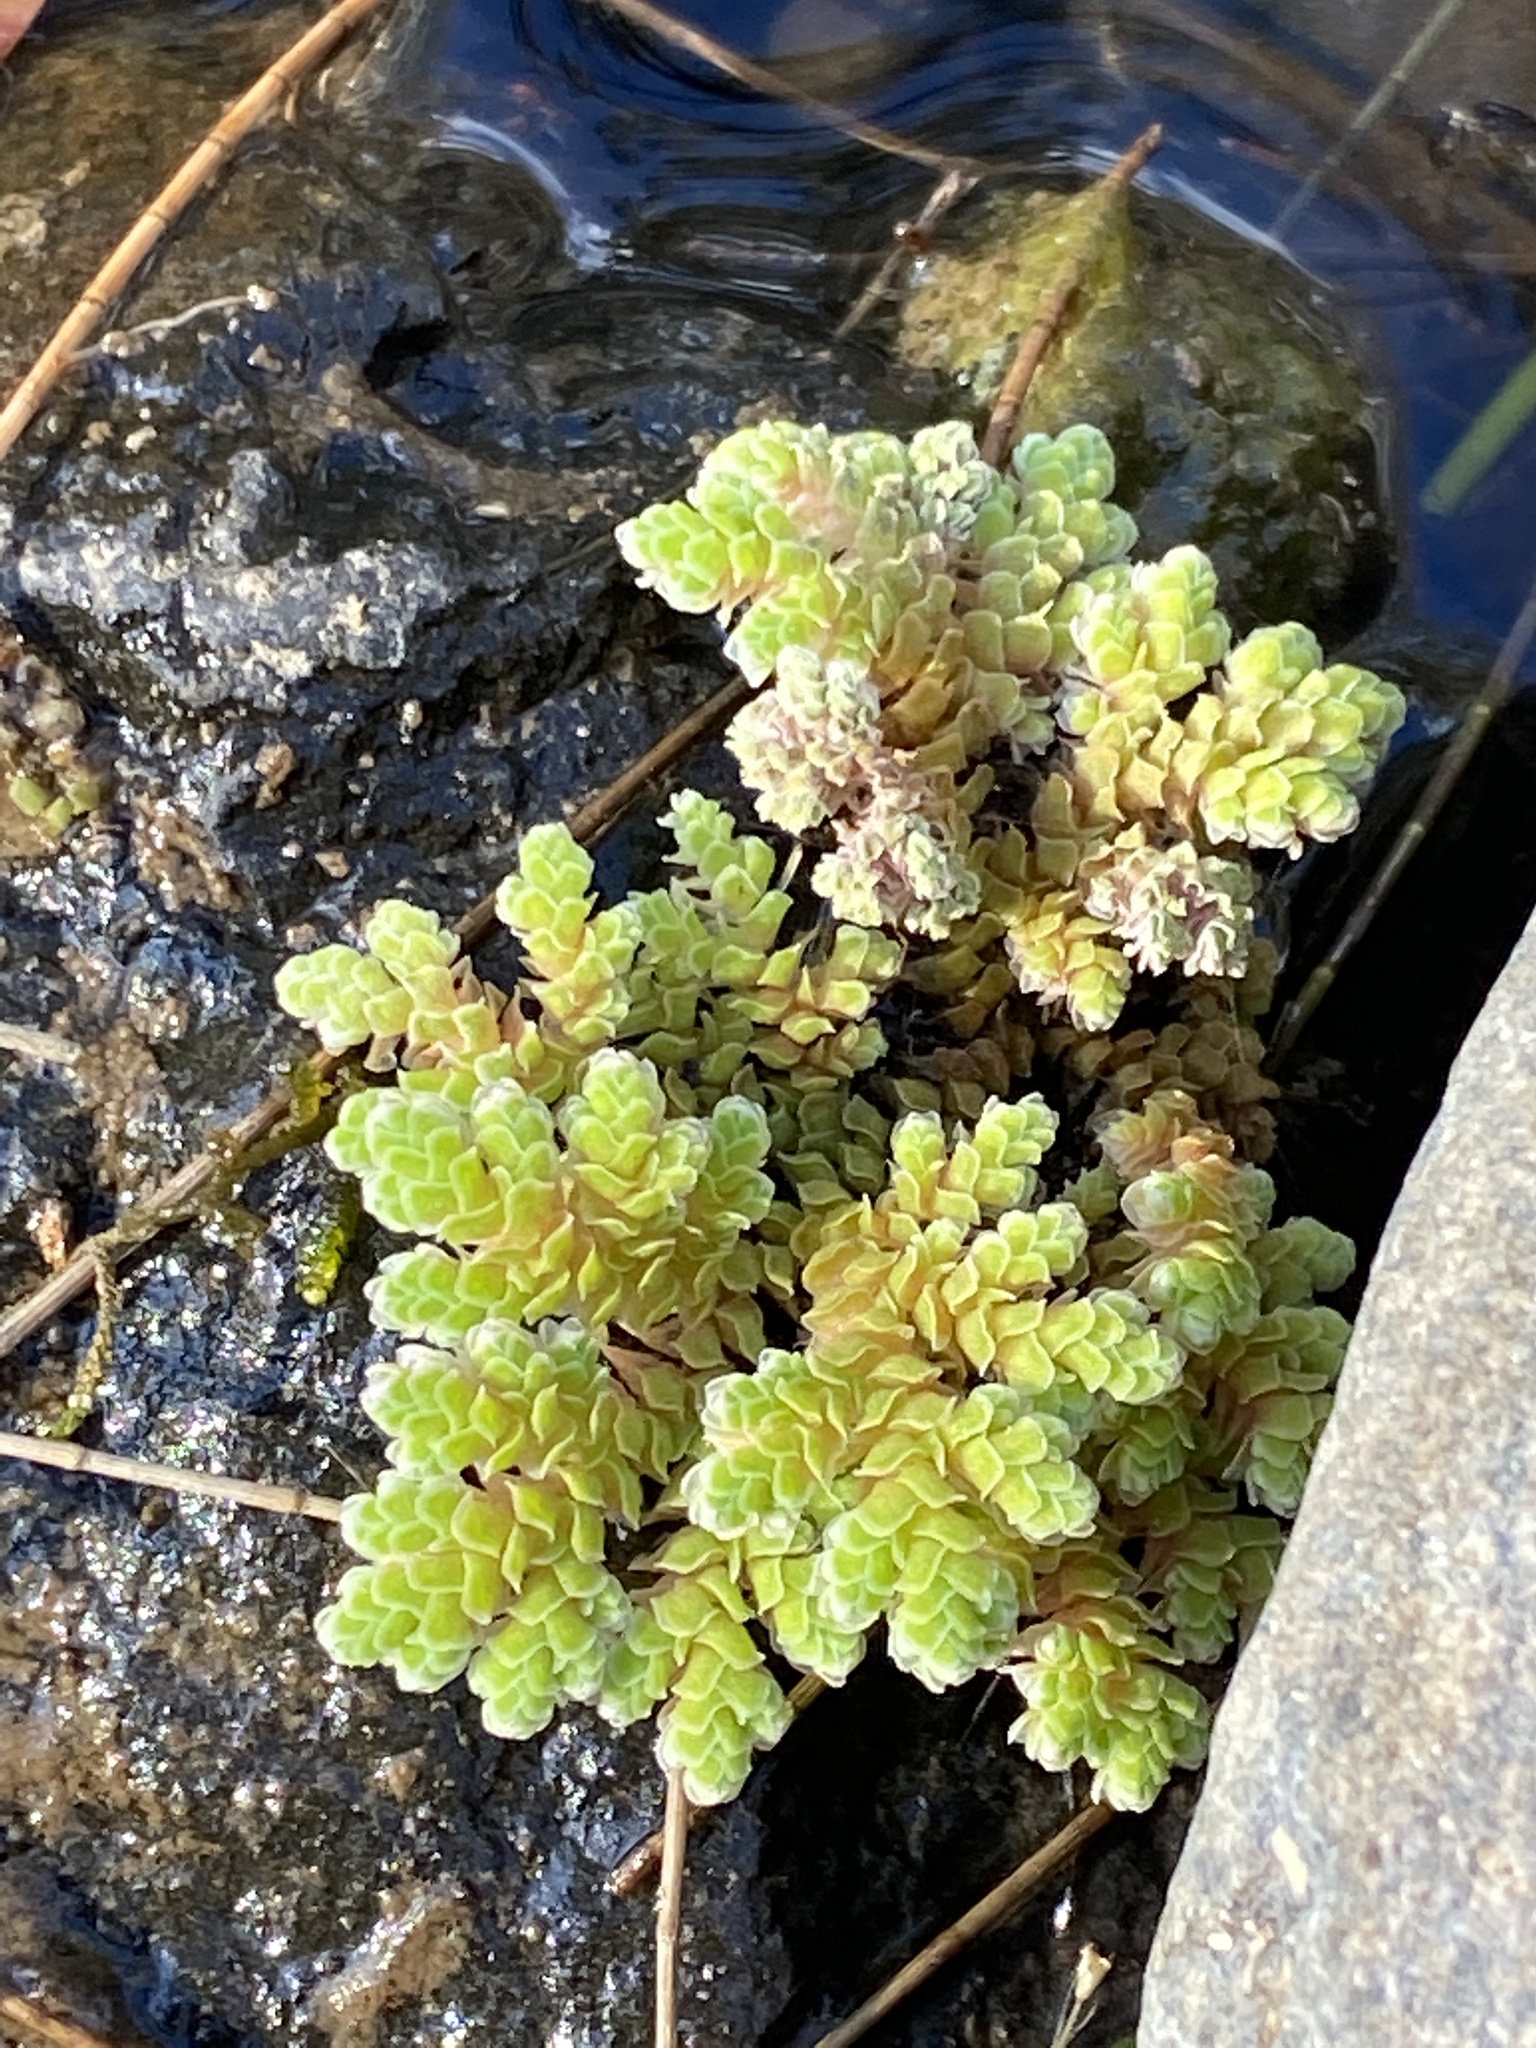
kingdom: Plantae
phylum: Tracheophyta
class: Polypodiopsida
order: Salviniales
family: Salviniaceae
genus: Azolla
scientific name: Azolla rubra
